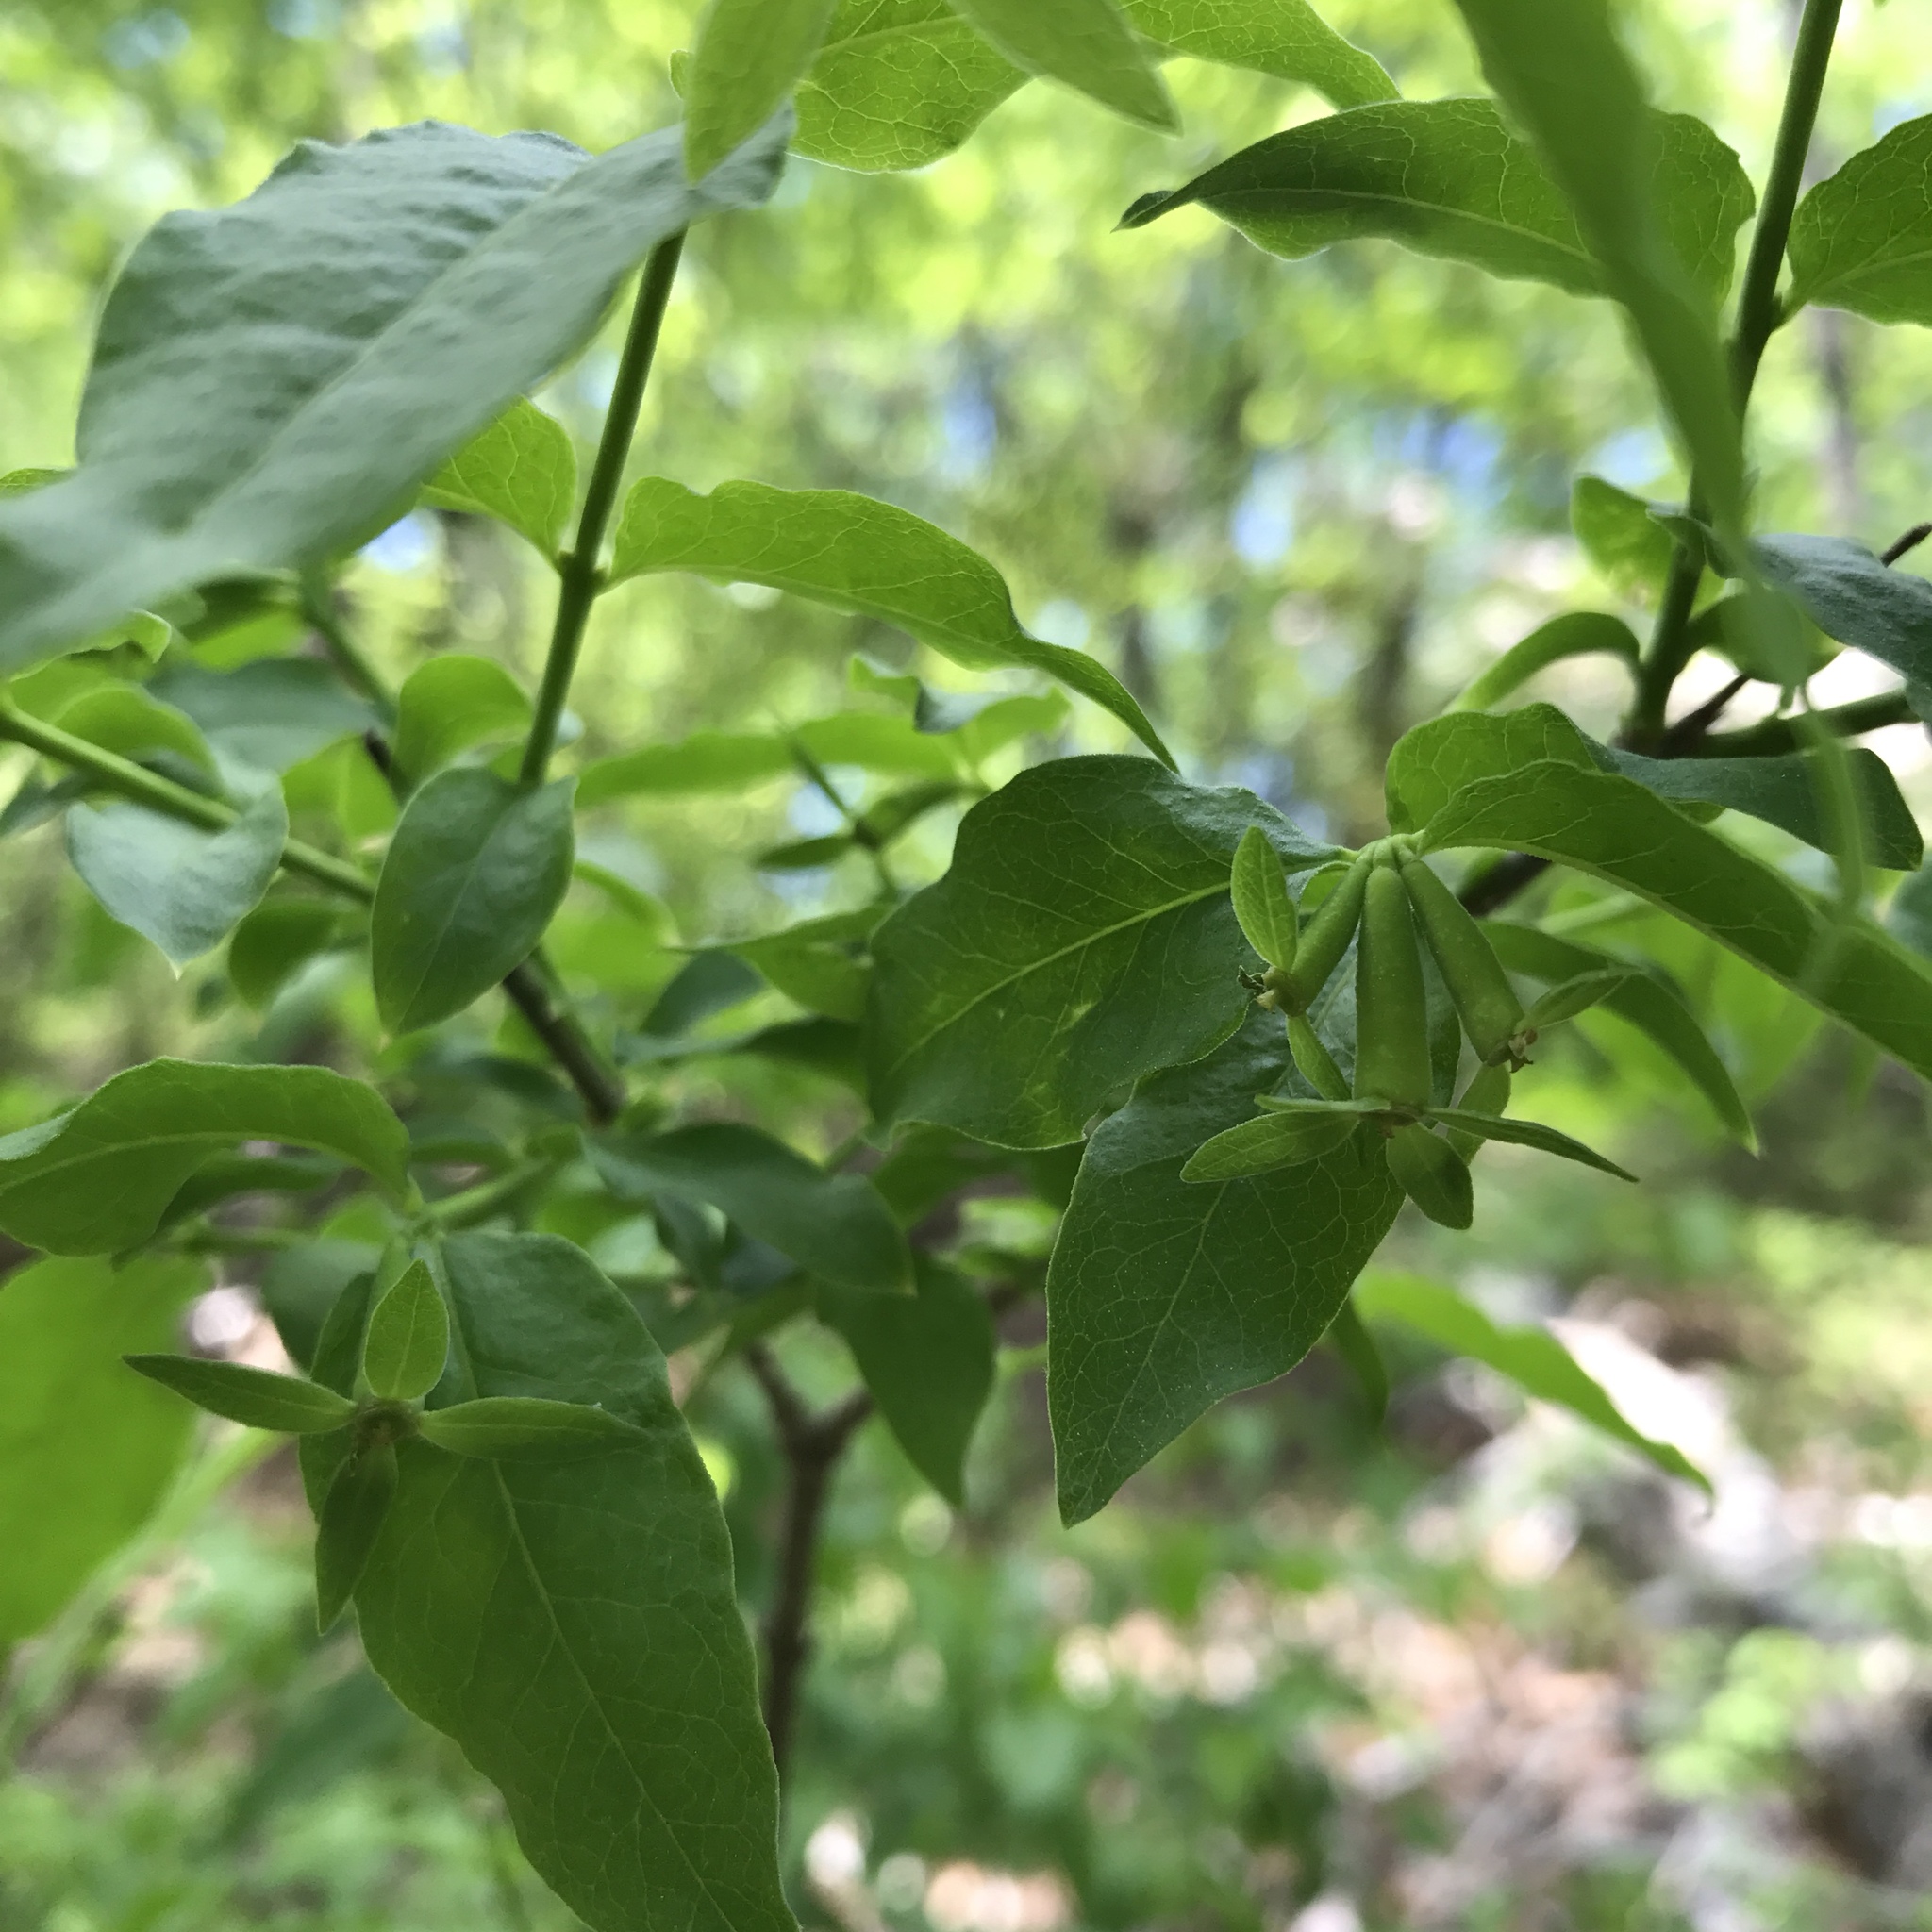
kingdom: Plantae
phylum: Tracheophyta
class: Magnoliopsida
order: Santalales
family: Thesiaceae
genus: Buckleya
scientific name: Buckleya distichophylla
